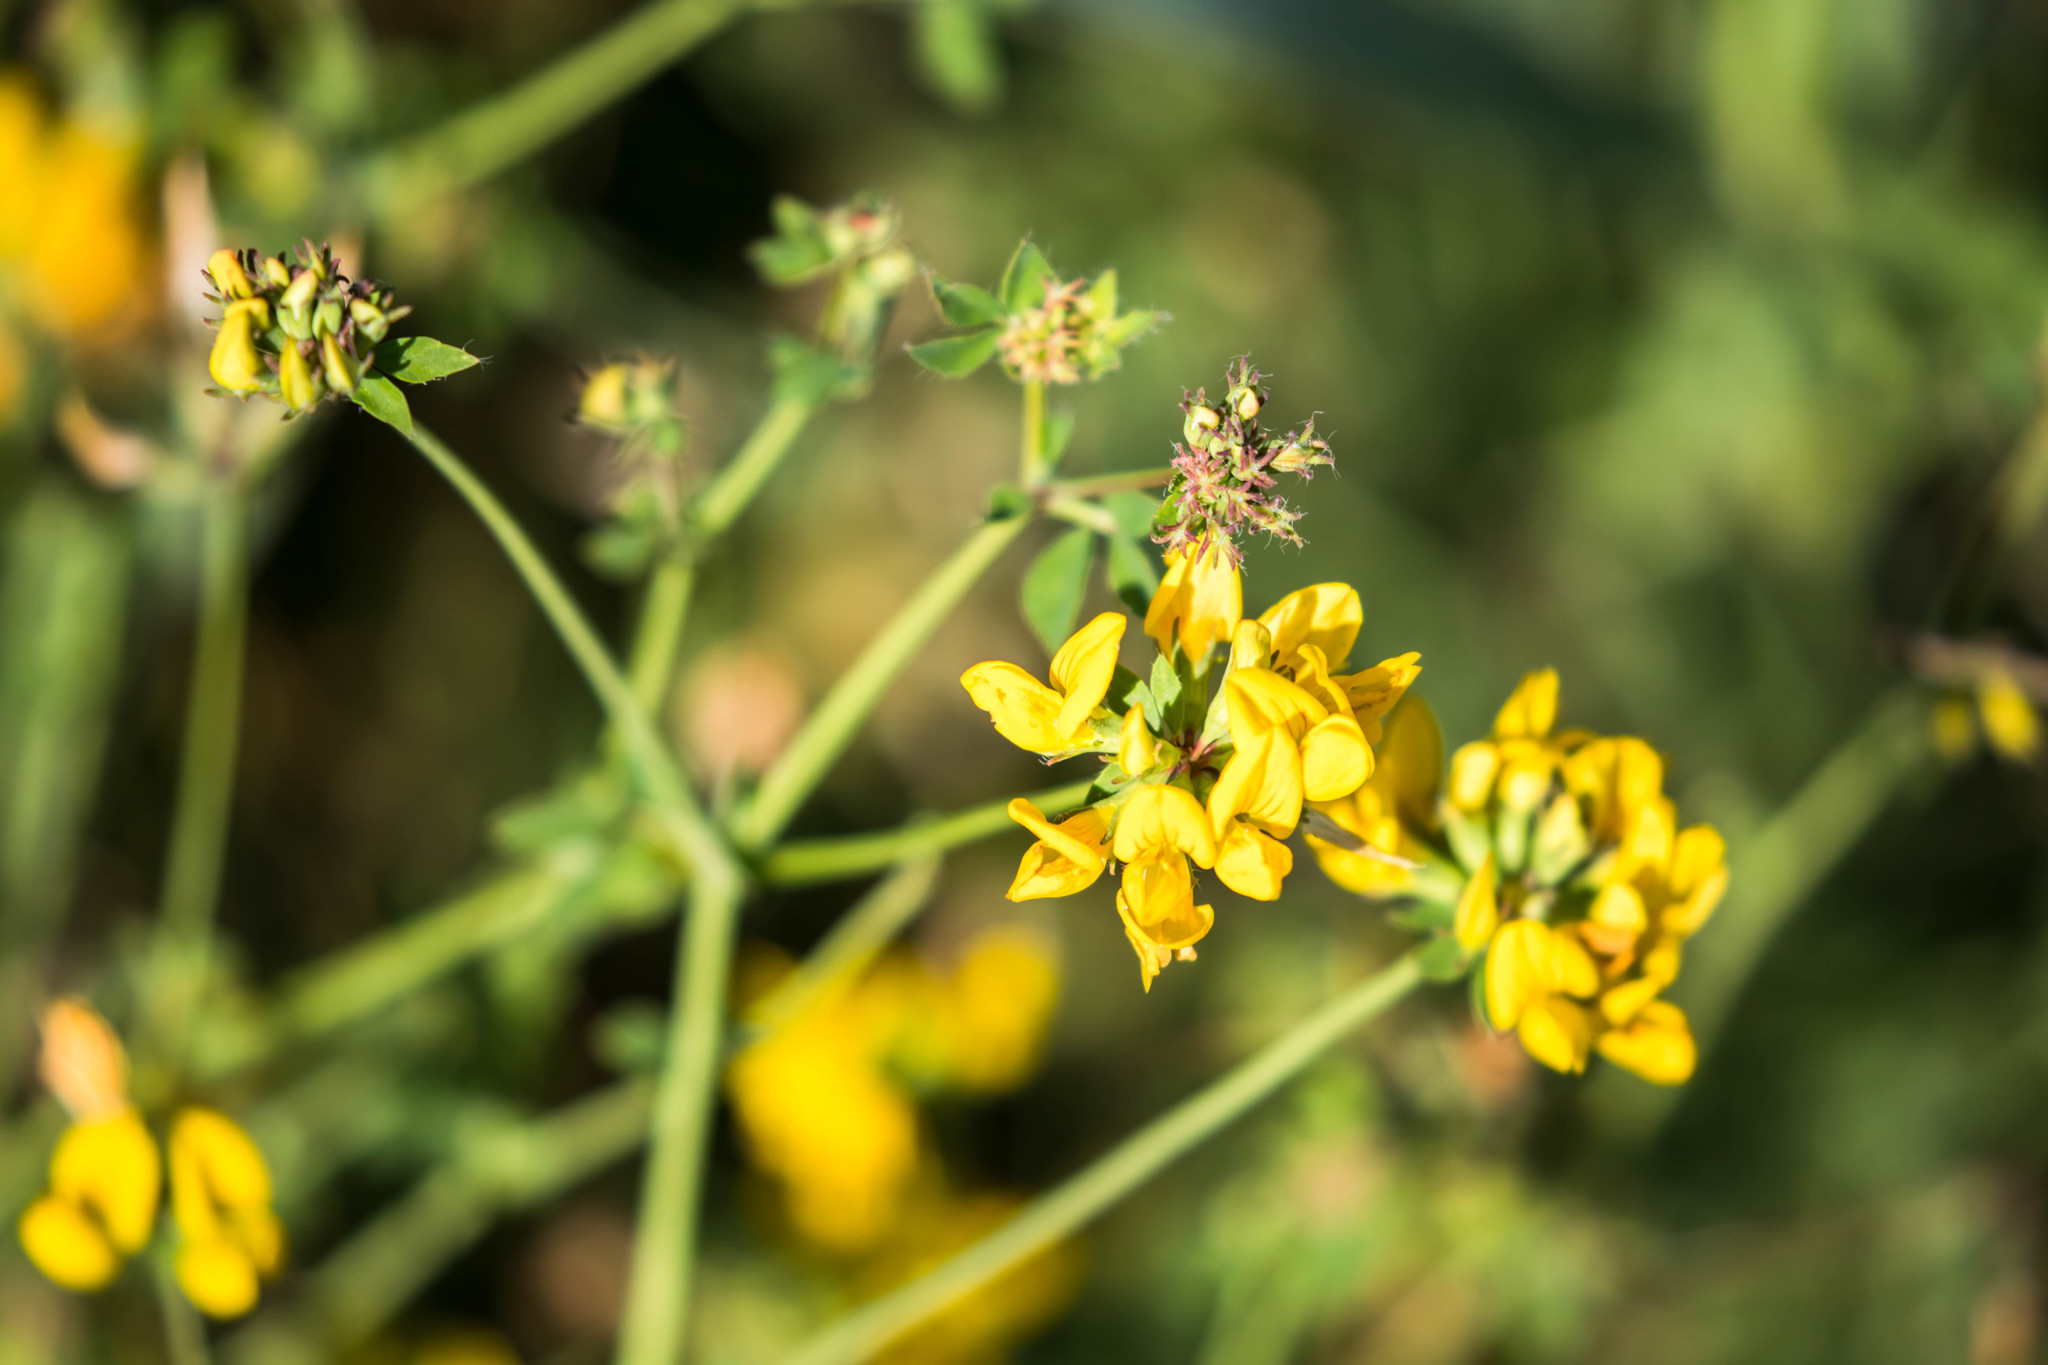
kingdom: Plantae
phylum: Tracheophyta
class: Magnoliopsida
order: Fabales
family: Fabaceae
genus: Lotus
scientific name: Lotus pedunculatus
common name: Greater birdsfoot-trefoil
